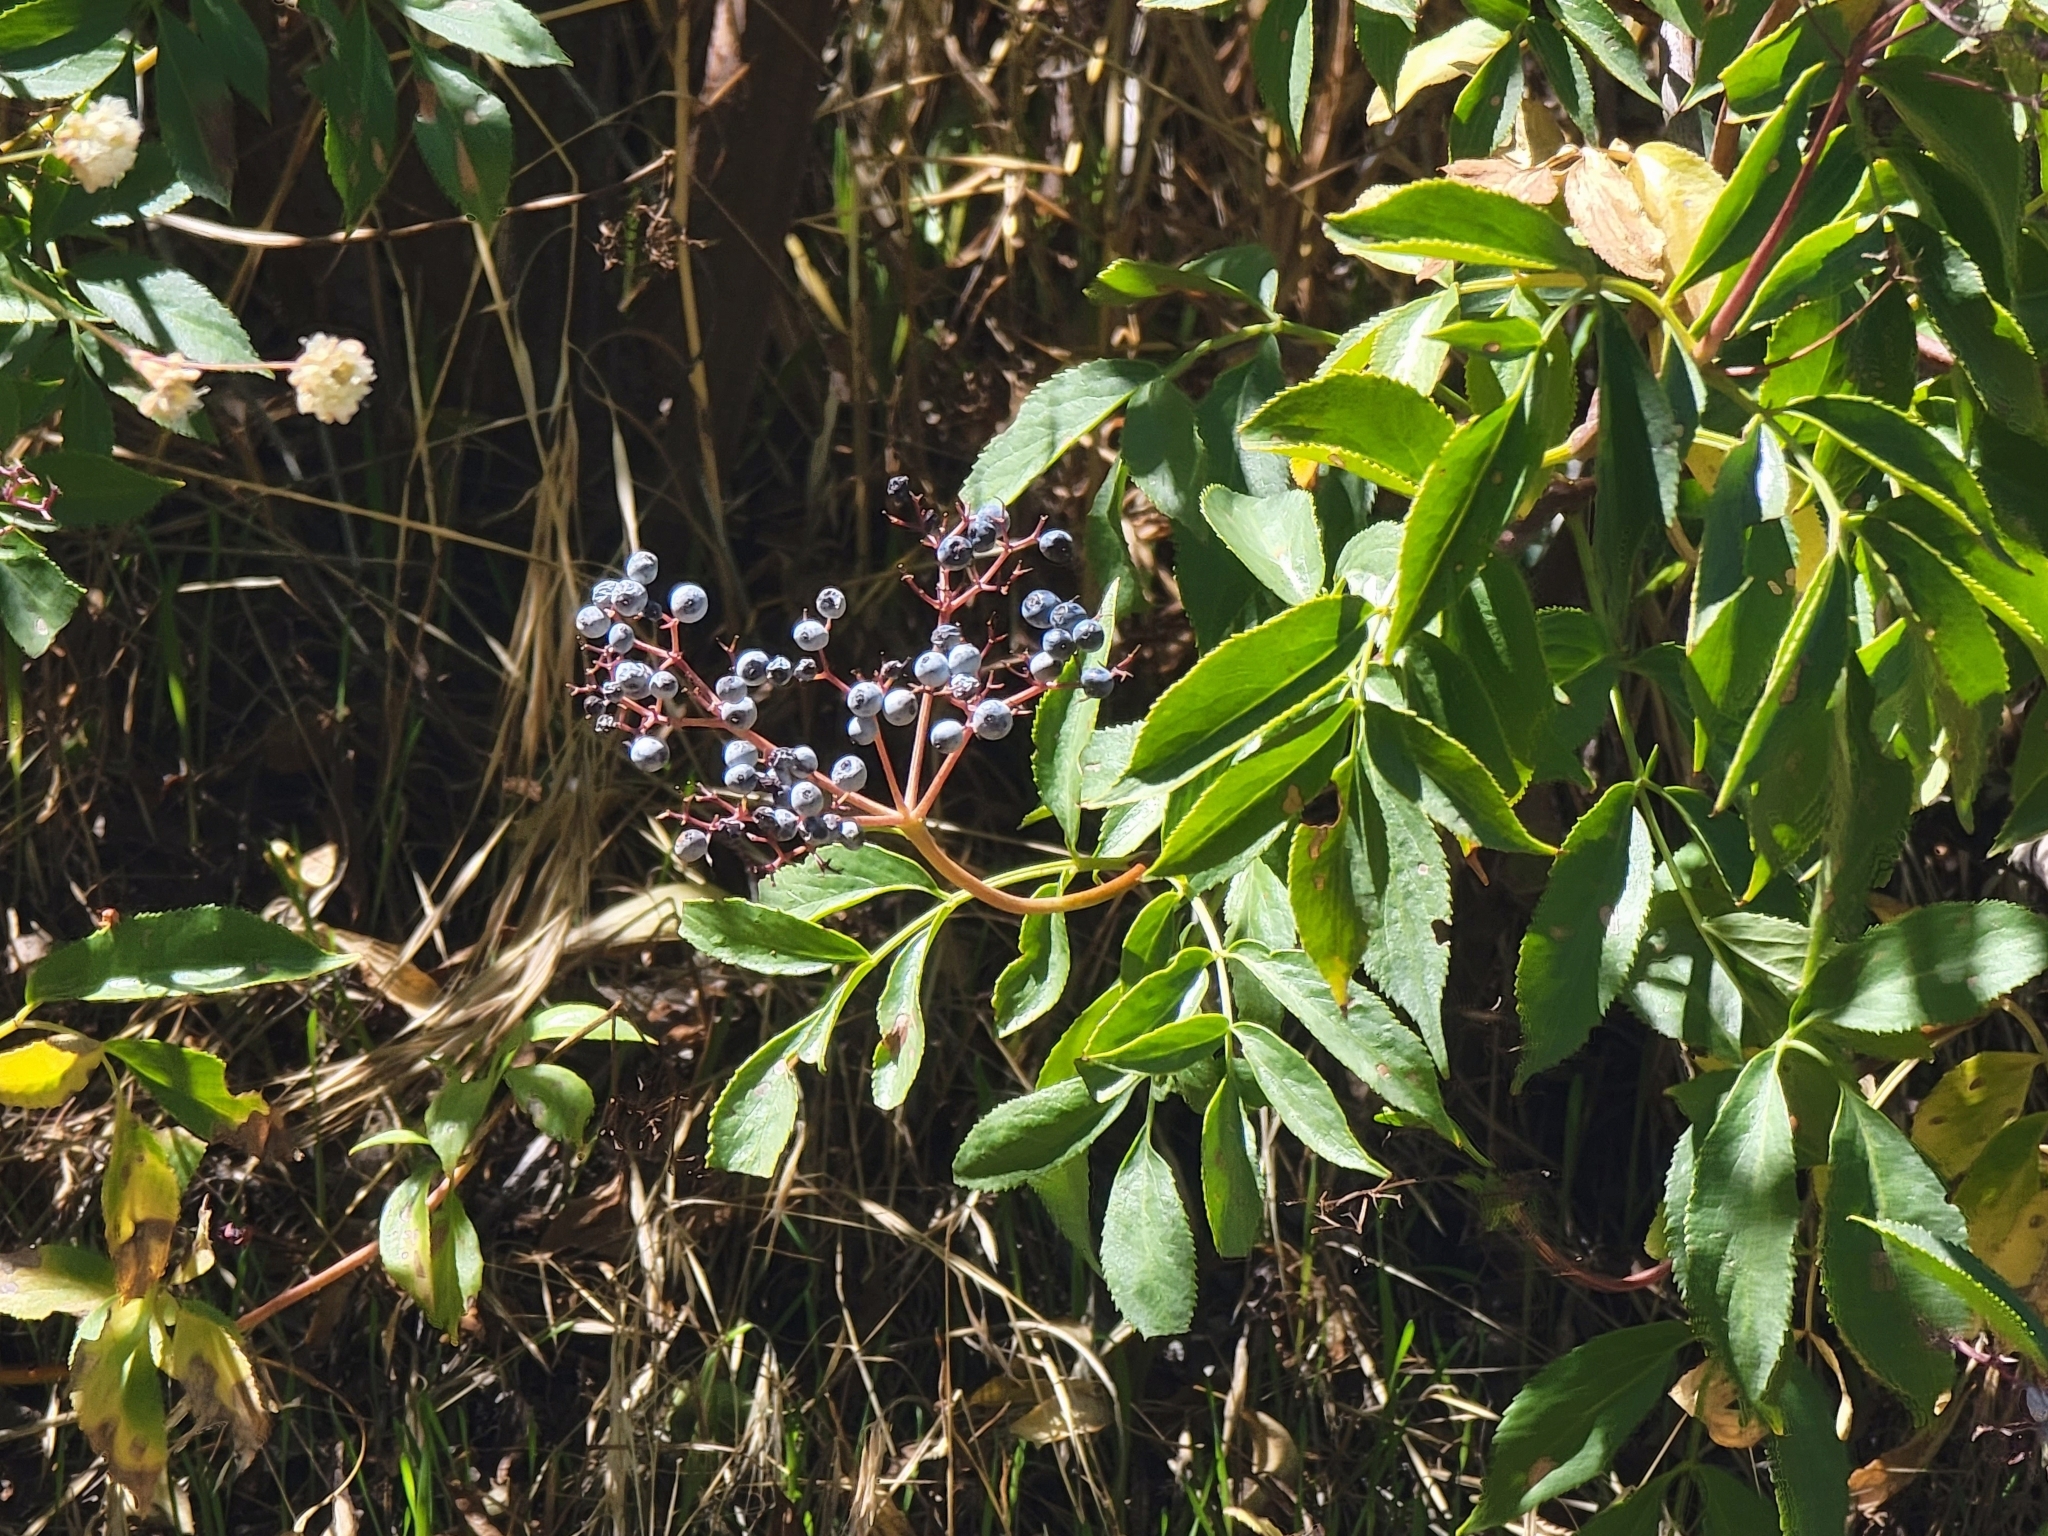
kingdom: Plantae
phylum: Tracheophyta
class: Magnoliopsida
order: Dipsacales
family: Viburnaceae
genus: Sambucus
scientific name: Sambucus cerulea
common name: Blue elder
